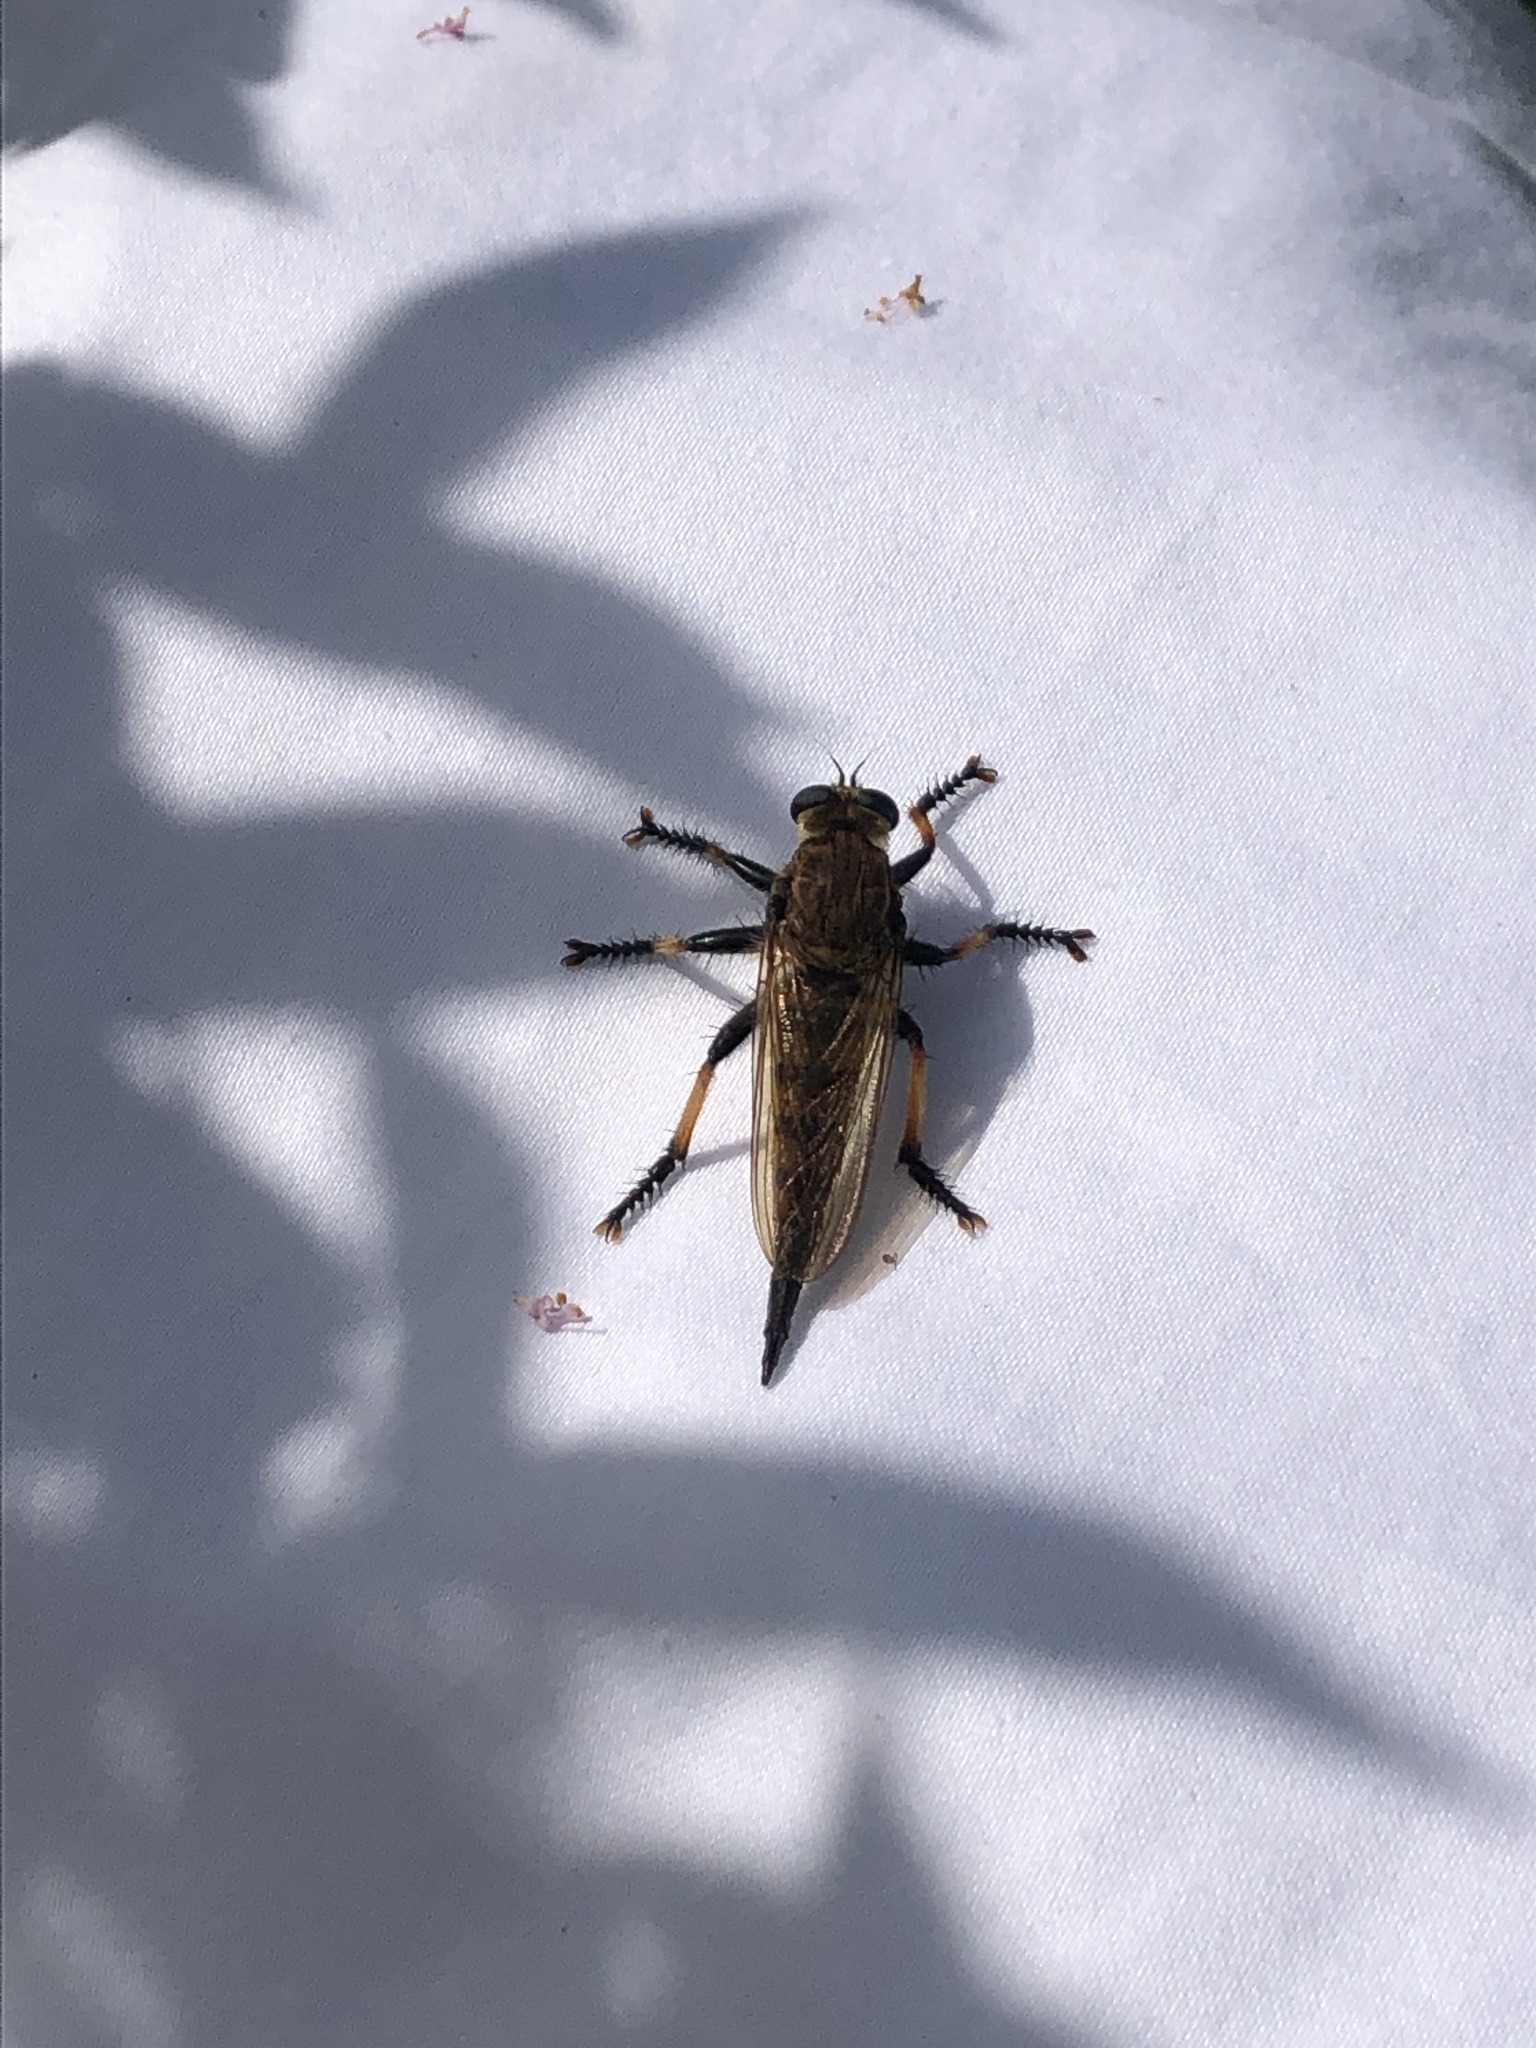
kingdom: Animalia
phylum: Arthropoda
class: Insecta
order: Diptera
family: Asilidae
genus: Promachus
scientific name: Promachus rufipes
